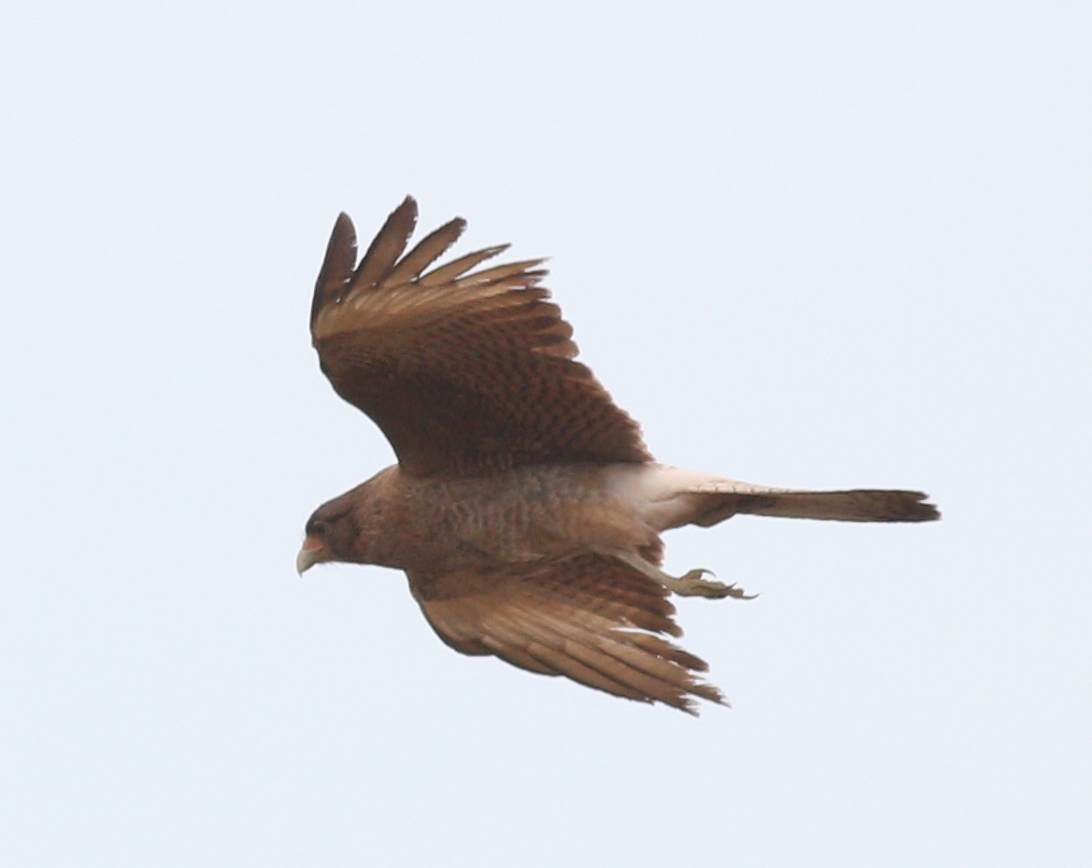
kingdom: Animalia
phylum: Chordata
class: Aves
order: Falconiformes
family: Falconidae
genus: Daptrius
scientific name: Daptrius
